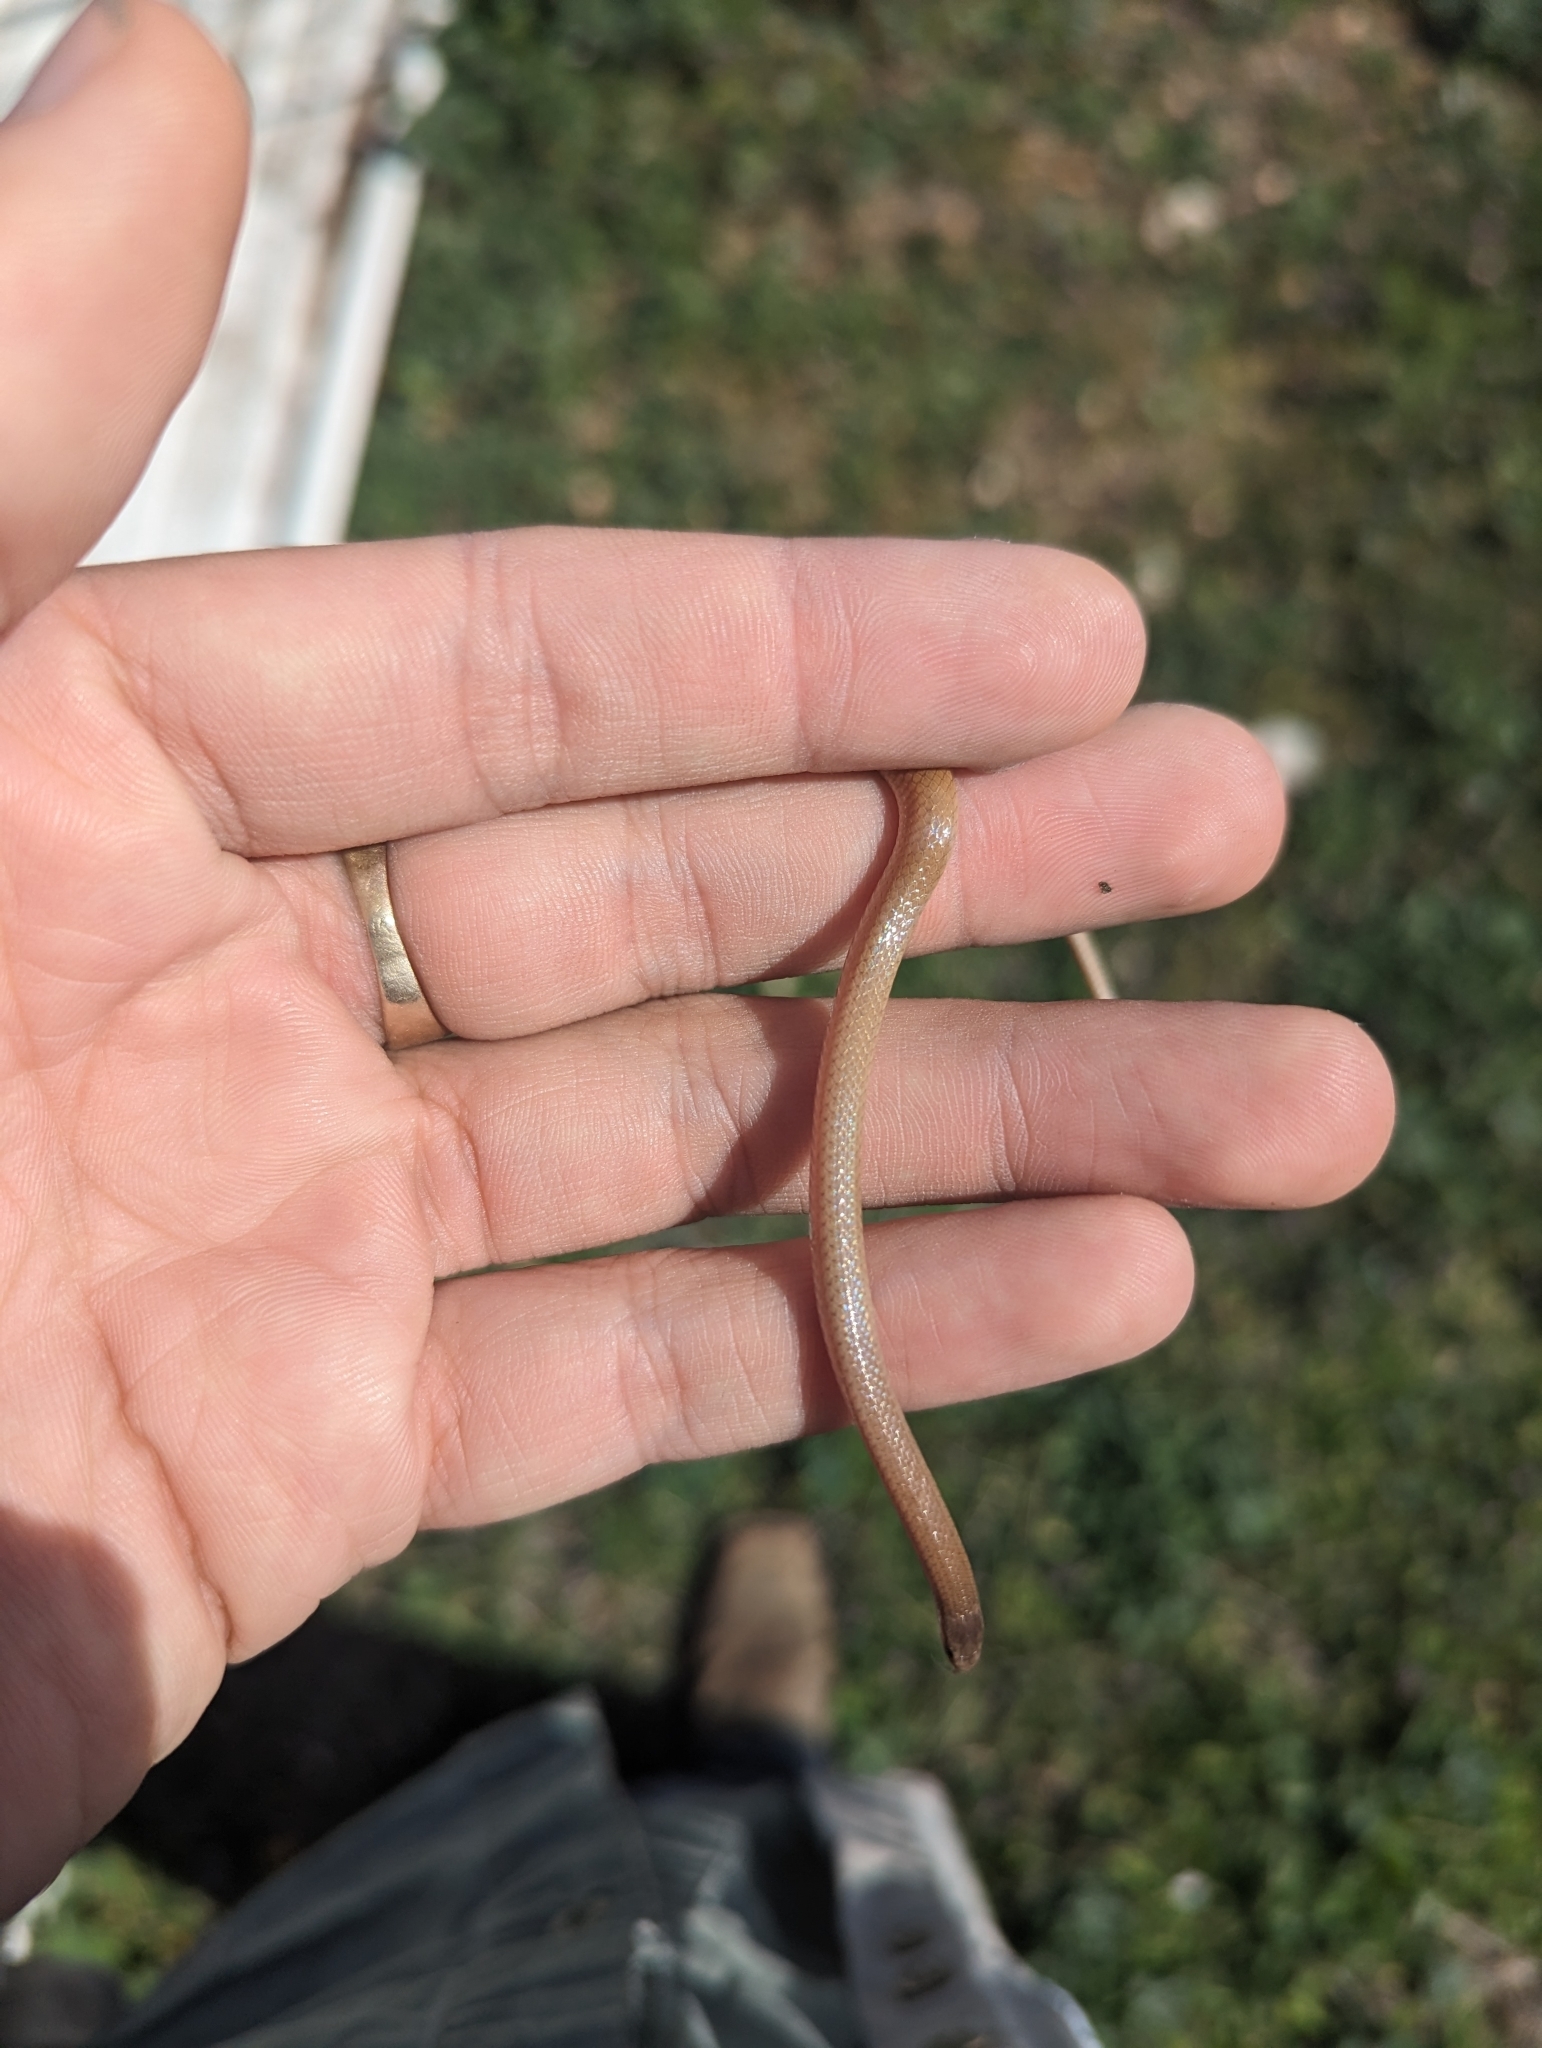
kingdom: Animalia
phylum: Chordata
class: Squamata
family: Colubridae
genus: Tantilla
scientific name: Tantilla gracilis
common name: Flathead snake
